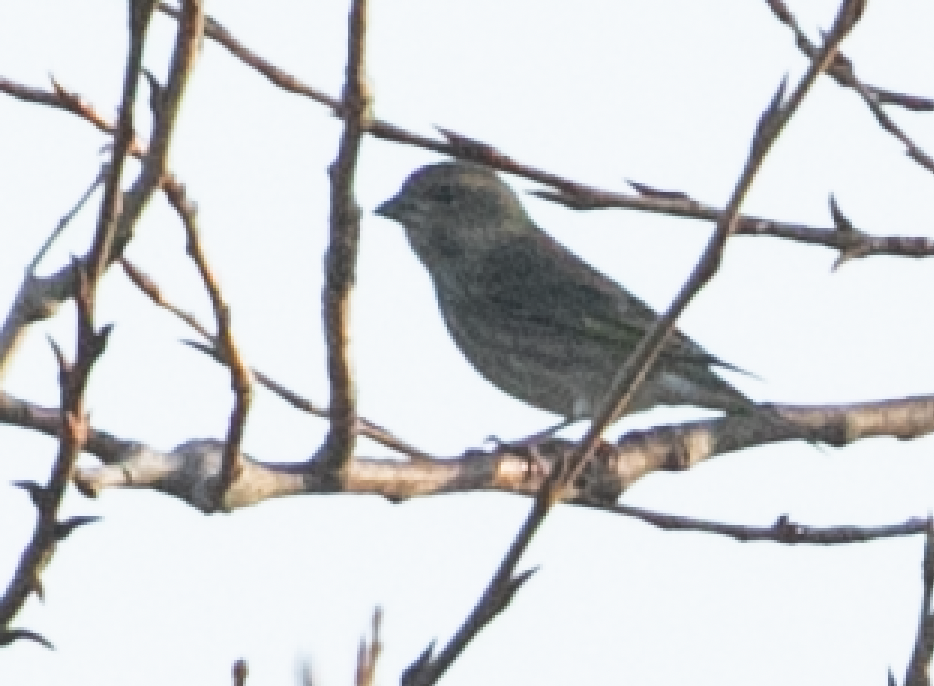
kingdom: Plantae
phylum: Tracheophyta
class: Liliopsida
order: Poales
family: Poaceae
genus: Chloris
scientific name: Chloris chloris
